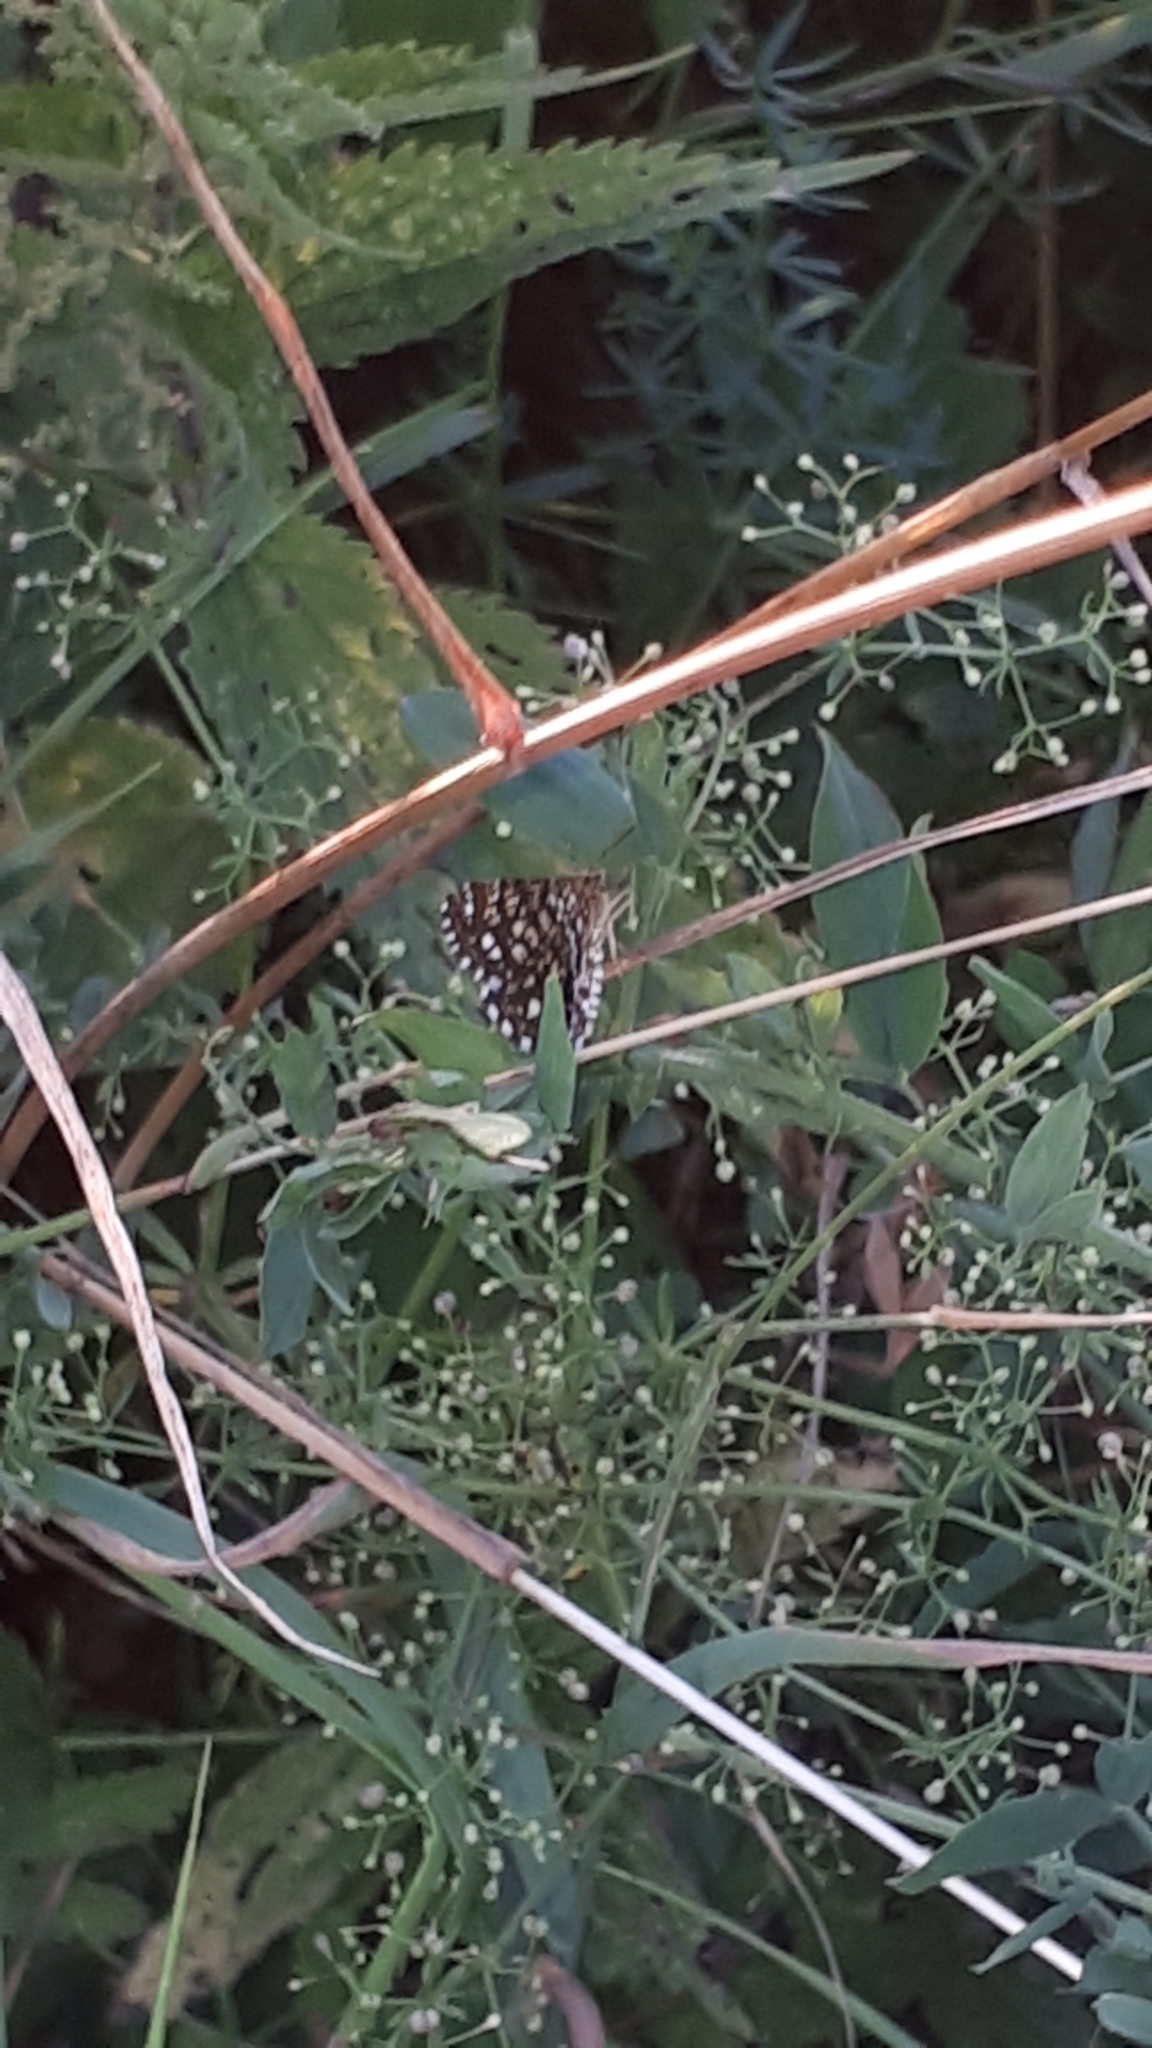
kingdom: Animalia
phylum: Arthropoda
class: Insecta
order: Lepidoptera
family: Geometridae
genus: Chiasmia
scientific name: Chiasmia clathrata
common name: Latticed heath
